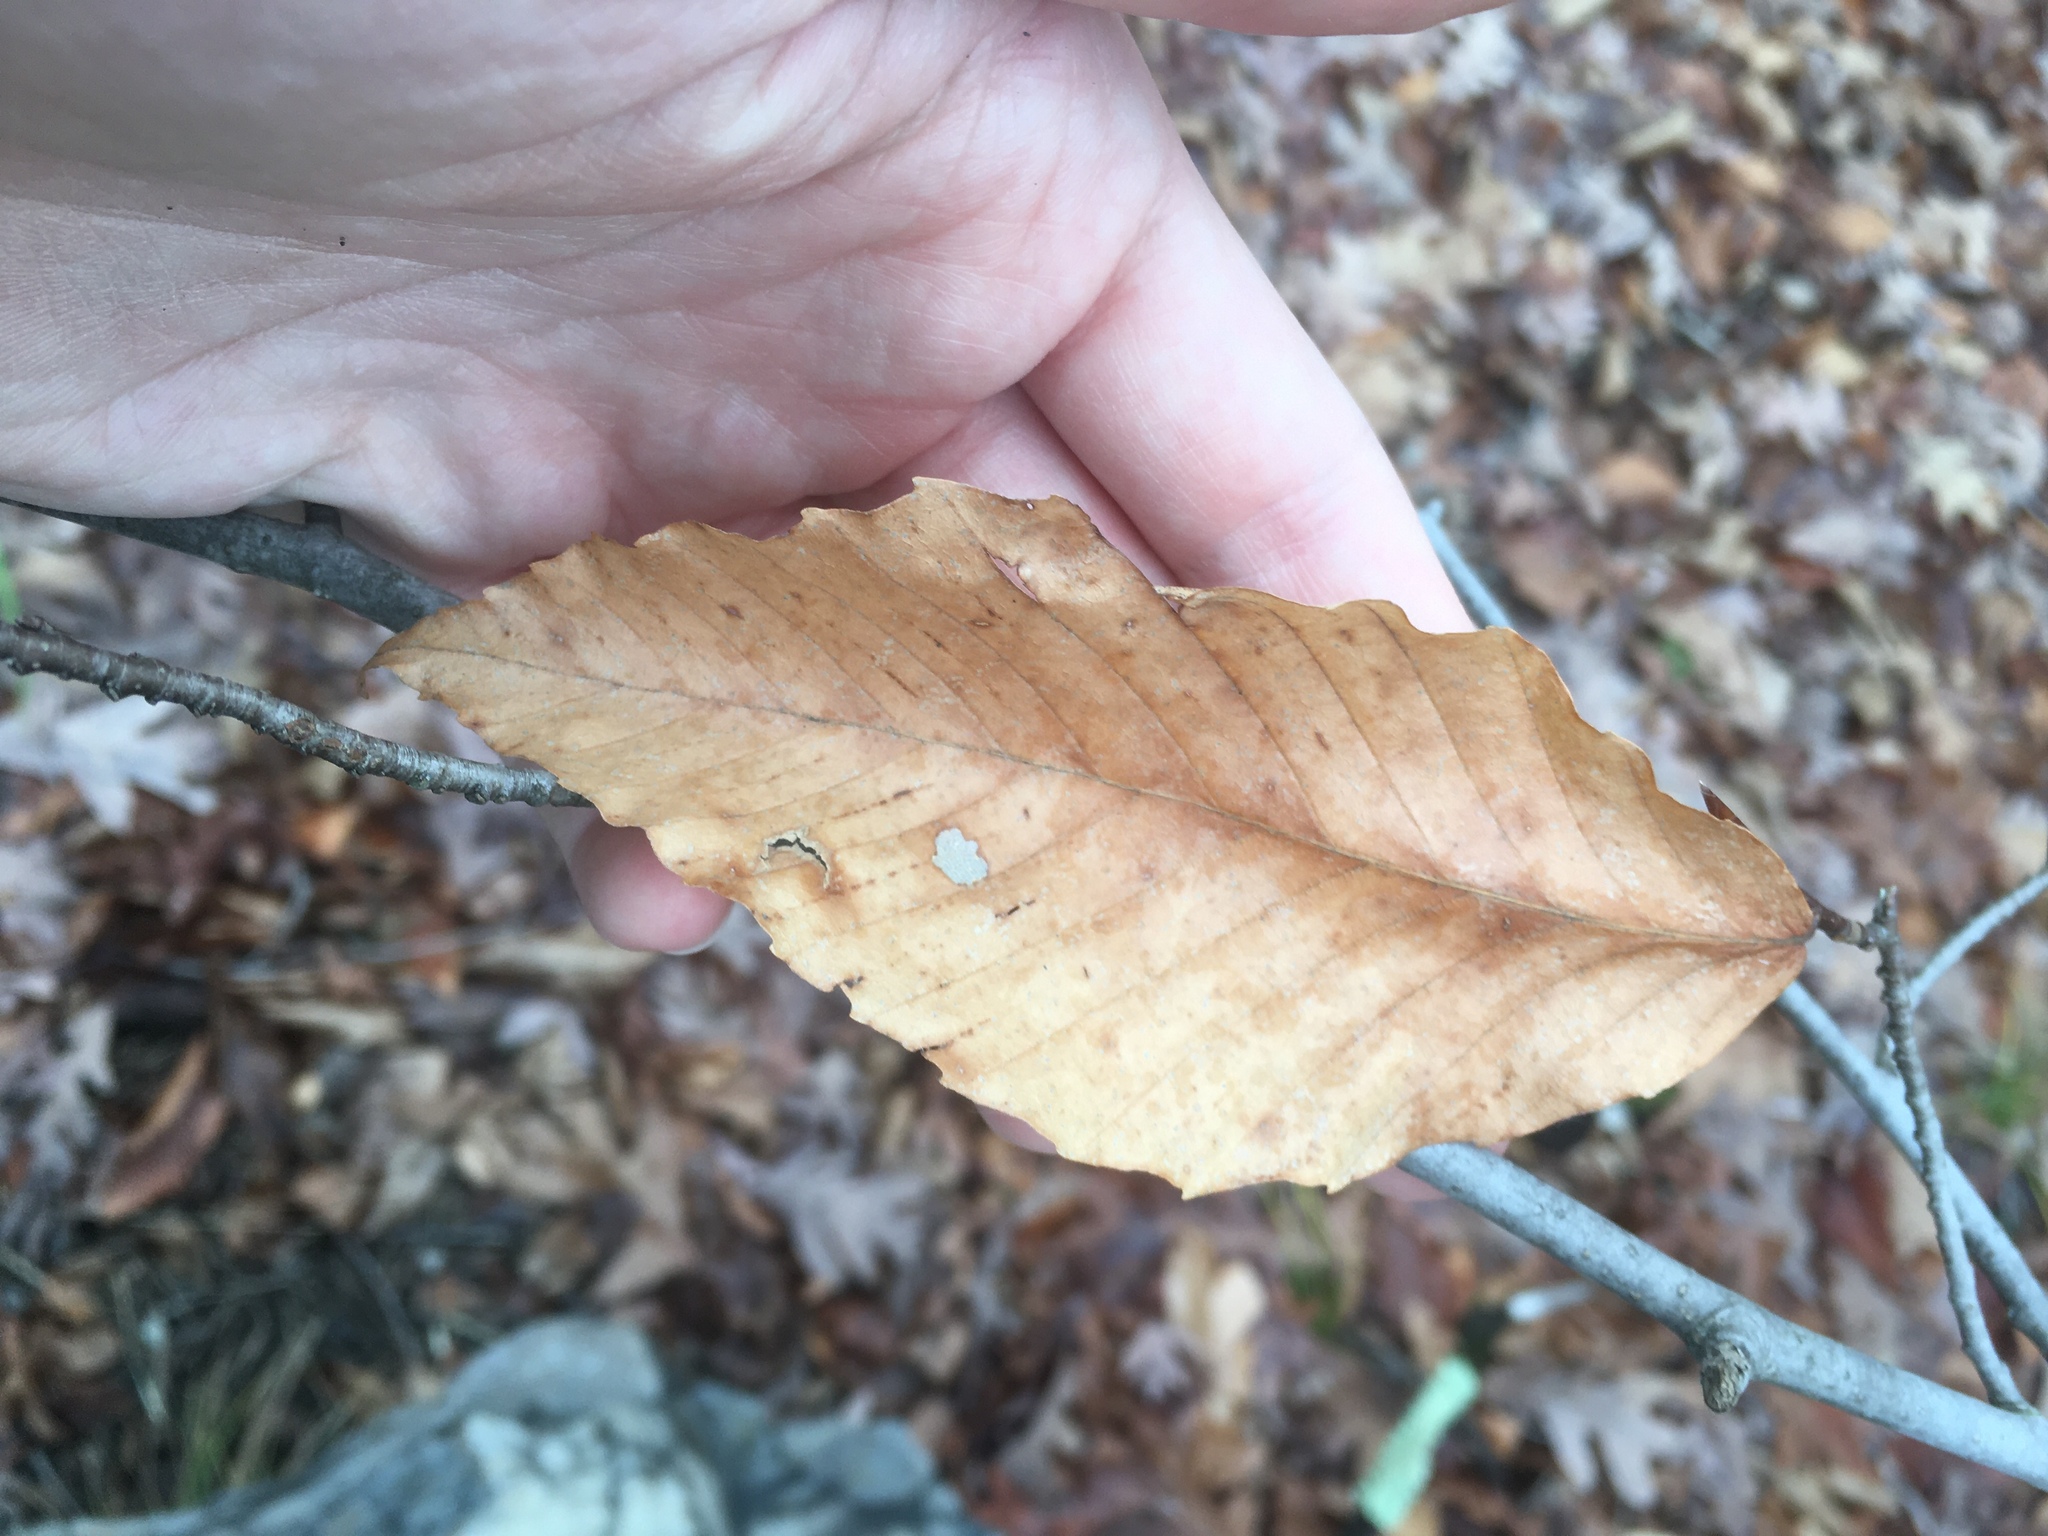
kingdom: Plantae
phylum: Tracheophyta
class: Magnoliopsida
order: Fagales
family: Fagaceae
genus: Fagus
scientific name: Fagus grandifolia
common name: American beech
